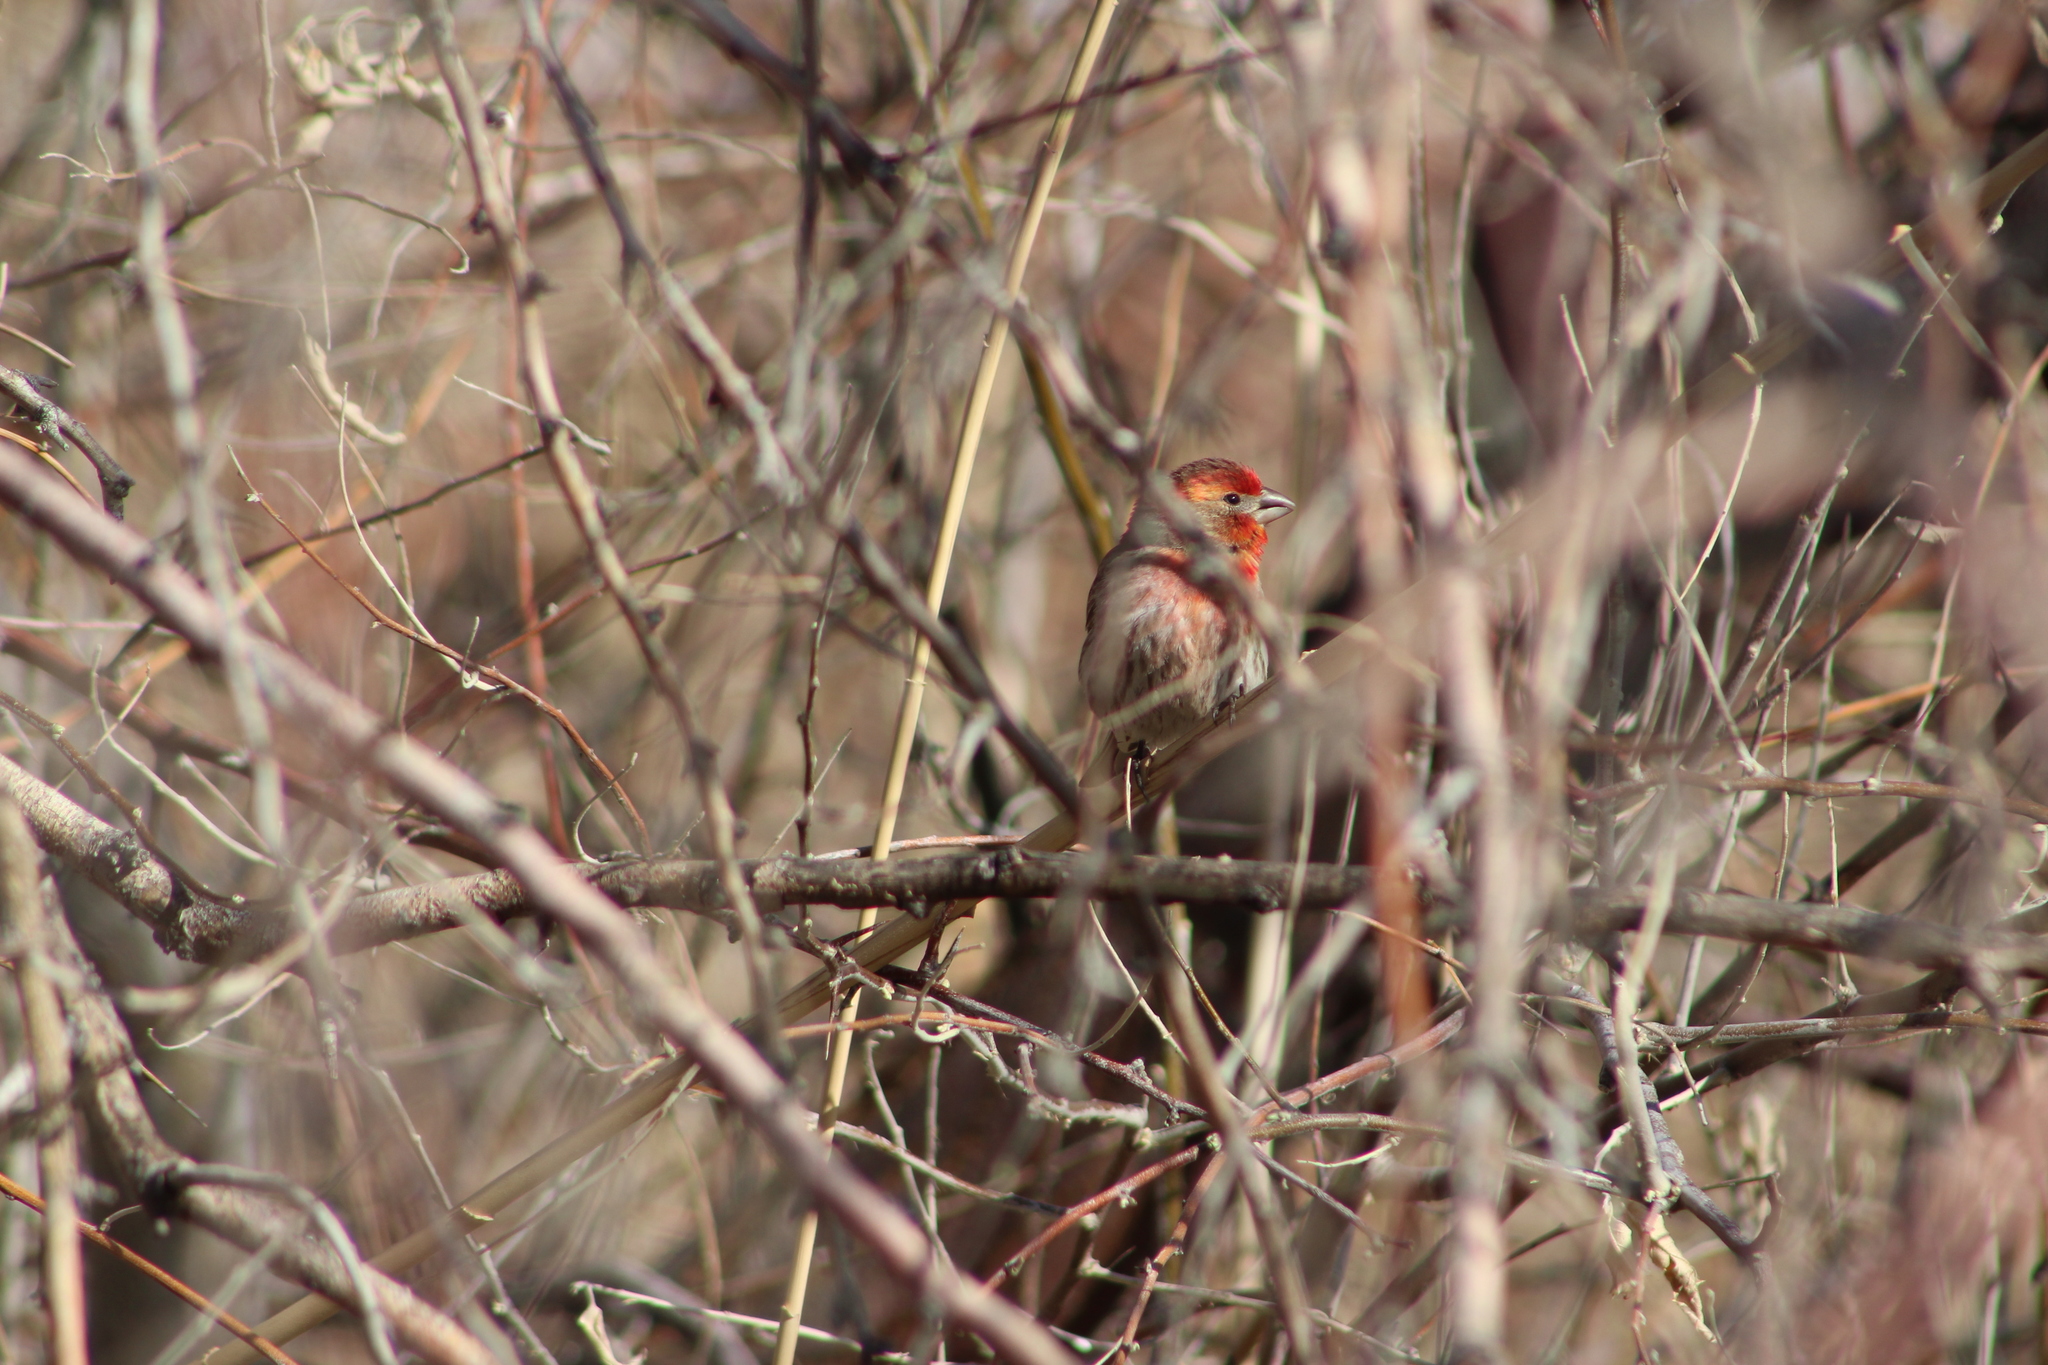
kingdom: Animalia
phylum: Chordata
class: Aves
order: Passeriformes
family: Fringillidae
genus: Haemorhous
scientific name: Haemorhous mexicanus
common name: House finch
